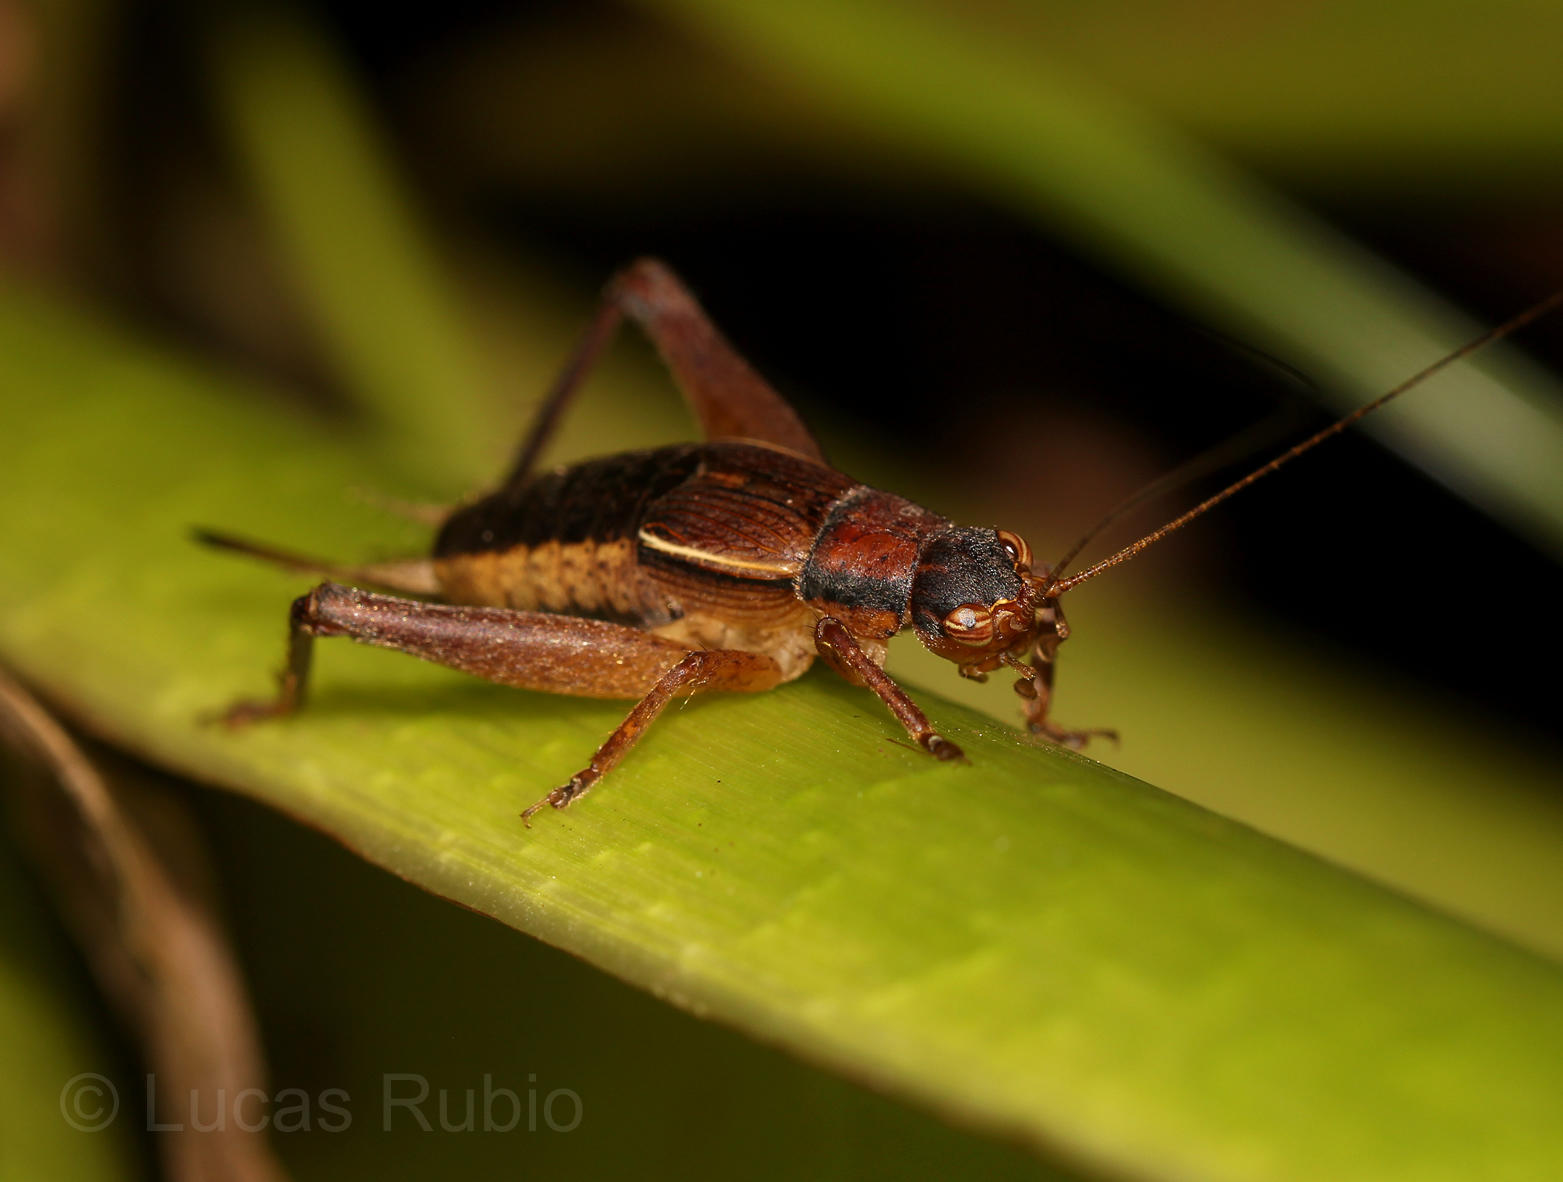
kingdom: Animalia
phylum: Arthropoda
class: Insecta
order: Orthoptera
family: Gryllidae
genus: Taroba
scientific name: Taroba elephantina
